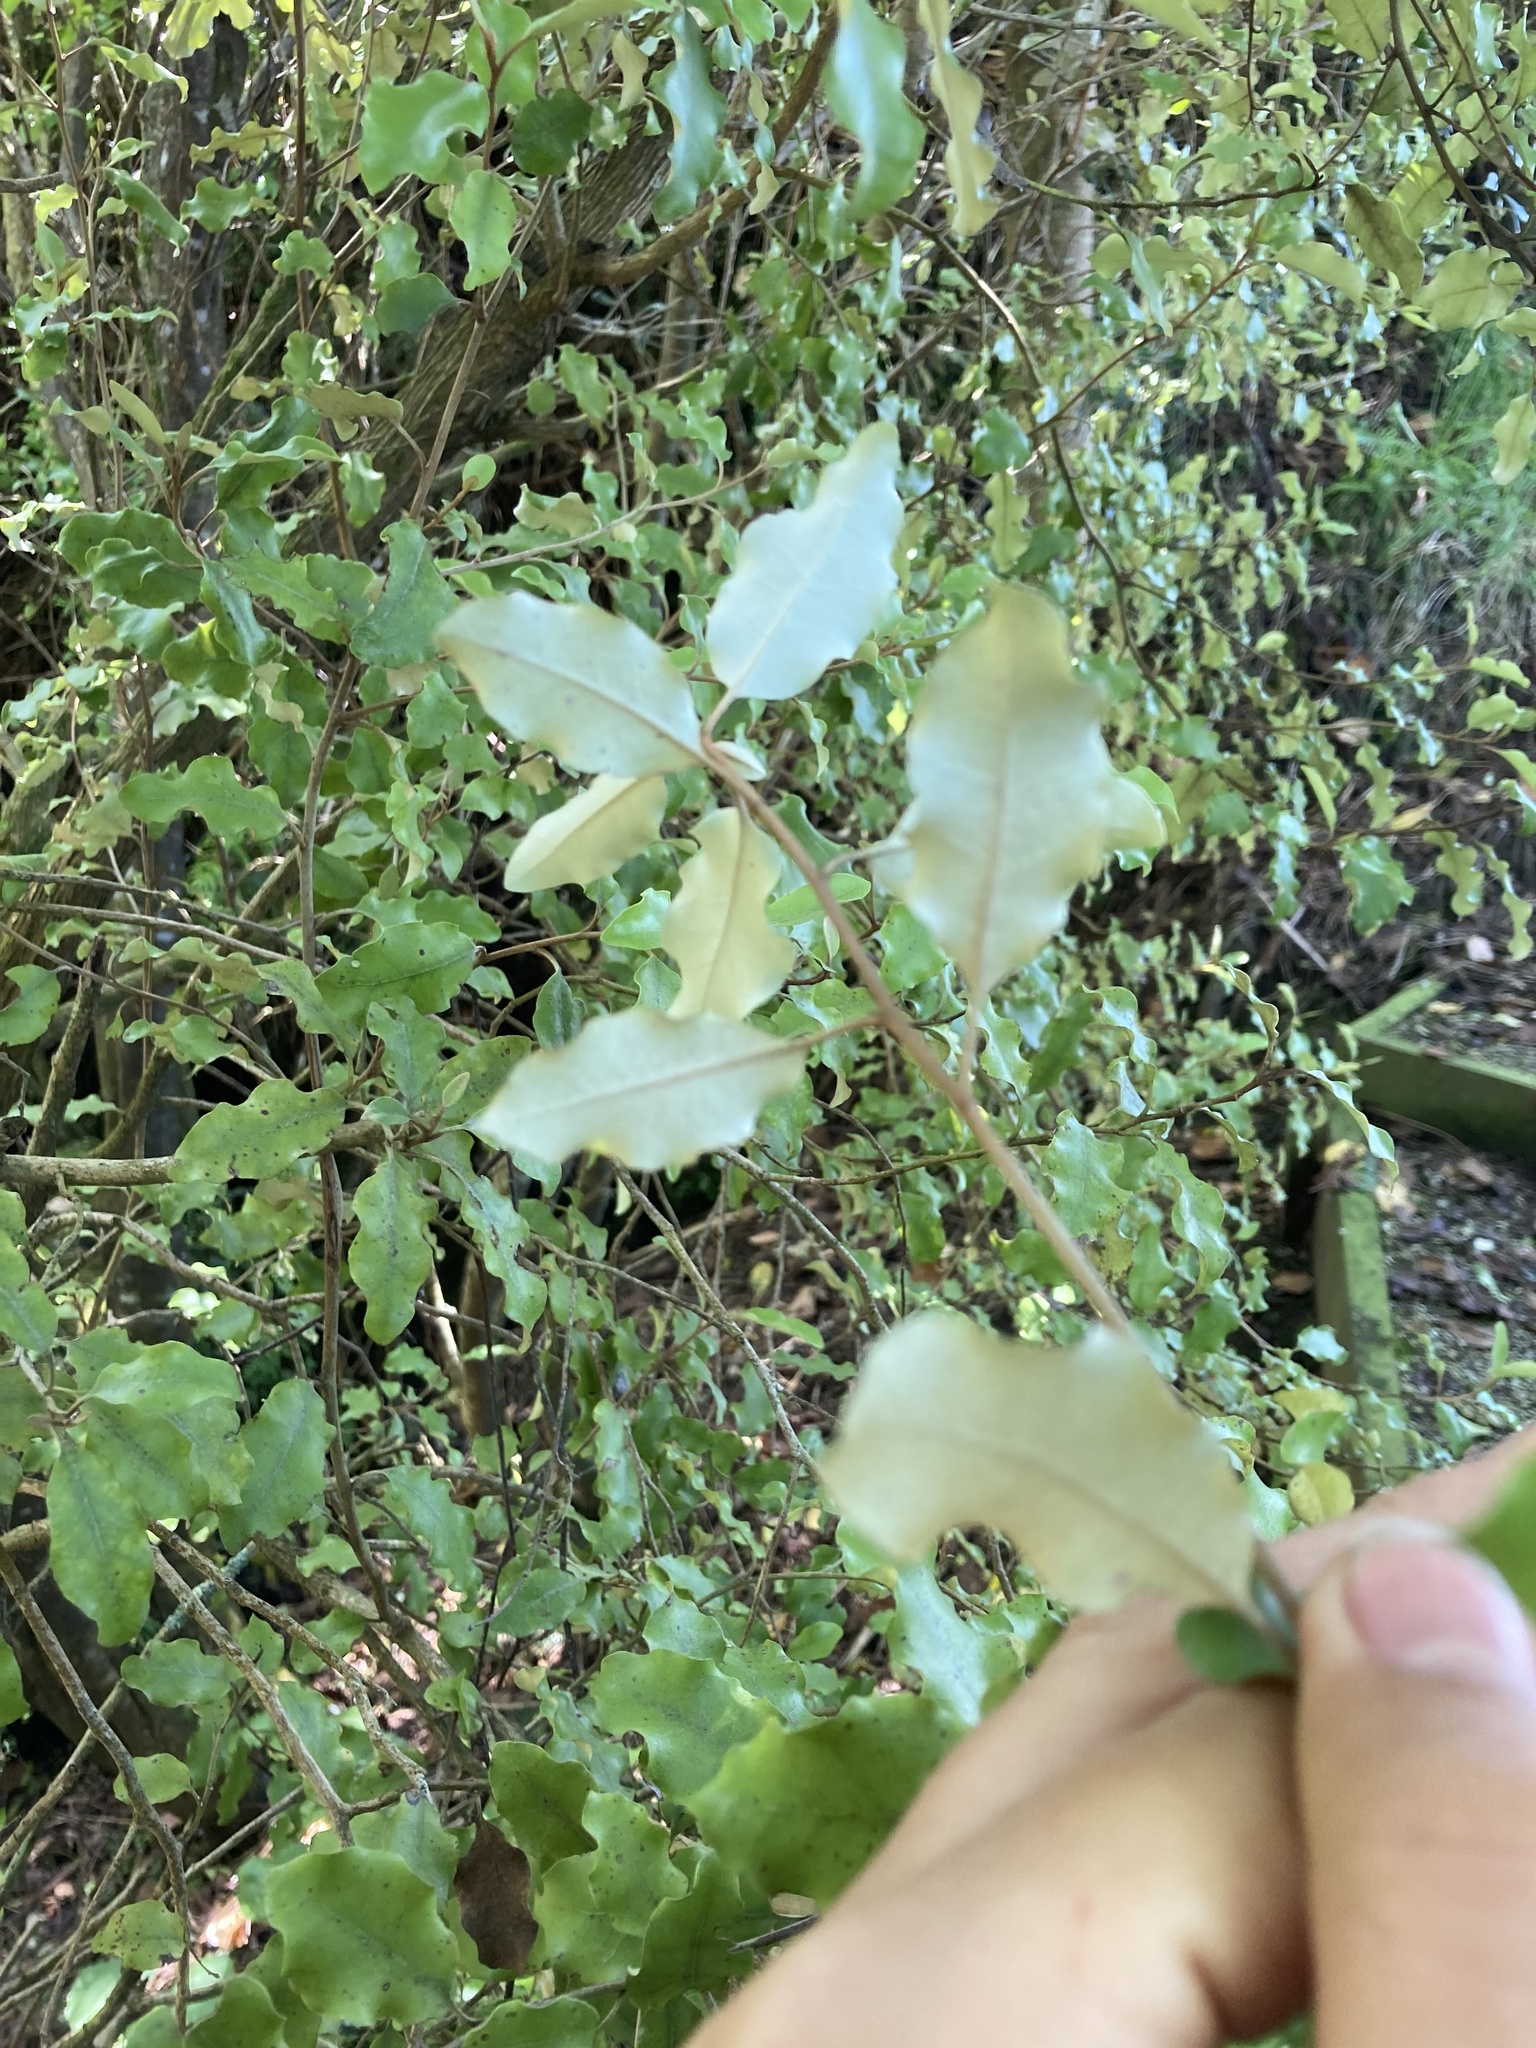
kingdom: Plantae
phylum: Tracheophyta
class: Magnoliopsida
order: Asterales
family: Asteraceae
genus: Olearia
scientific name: Olearia paniculata
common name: Akiraho
